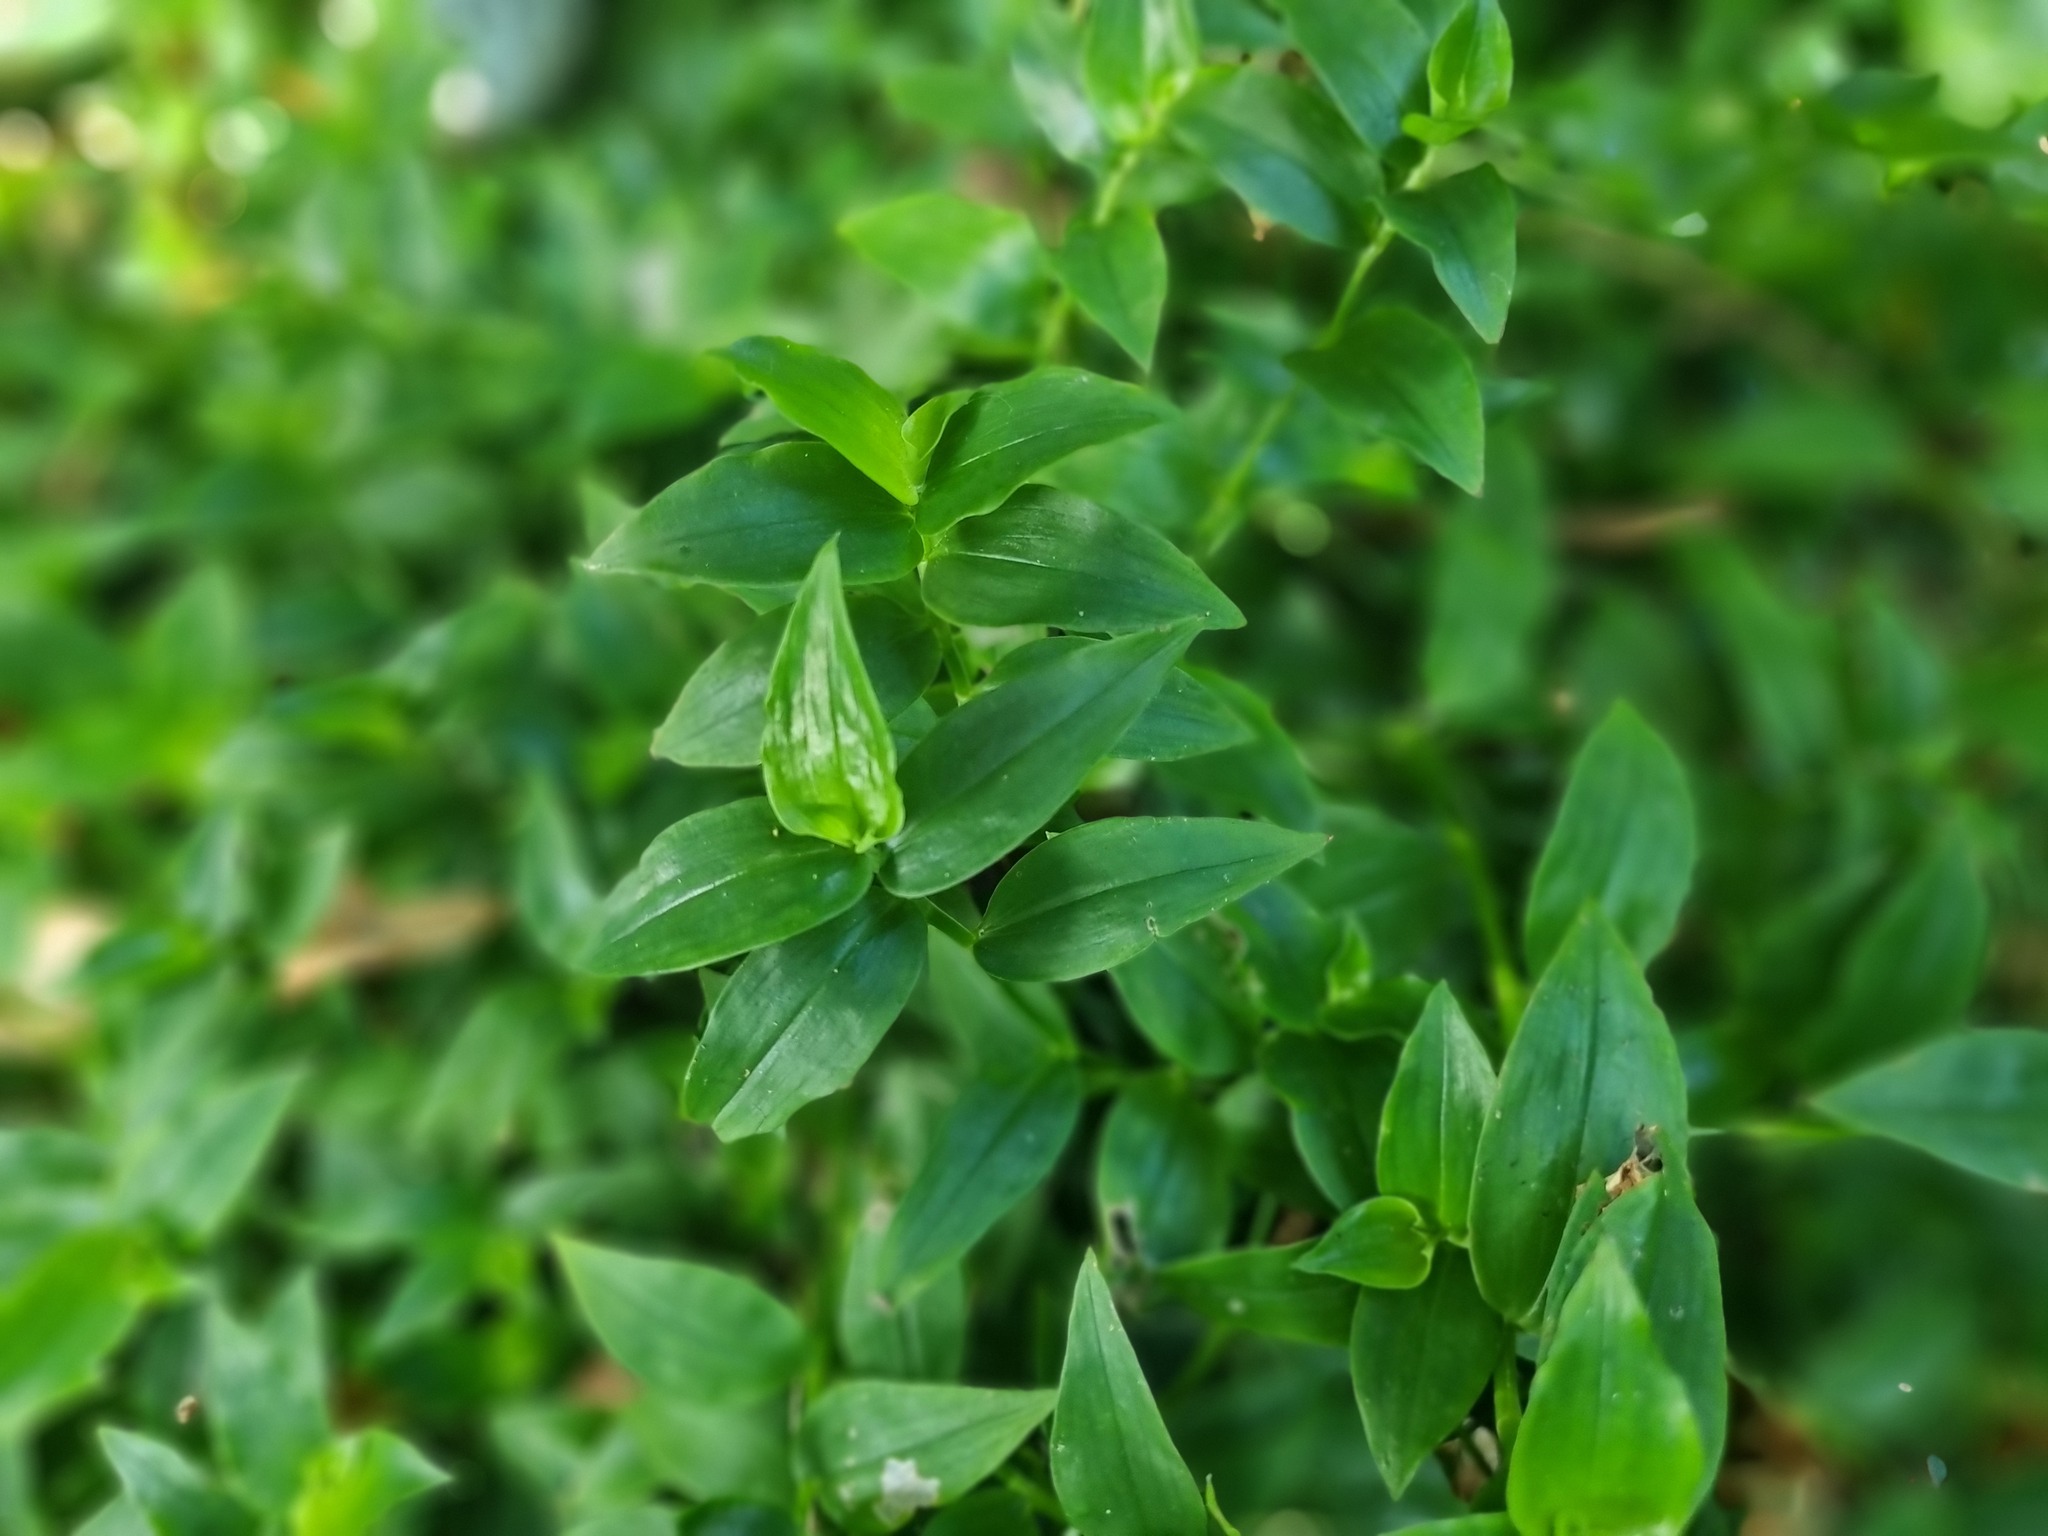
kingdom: Plantae
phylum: Tracheophyta
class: Liliopsida
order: Commelinales
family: Commelinaceae
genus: Tradescantia
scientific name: Tradescantia fluminensis
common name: Wandering-jew
